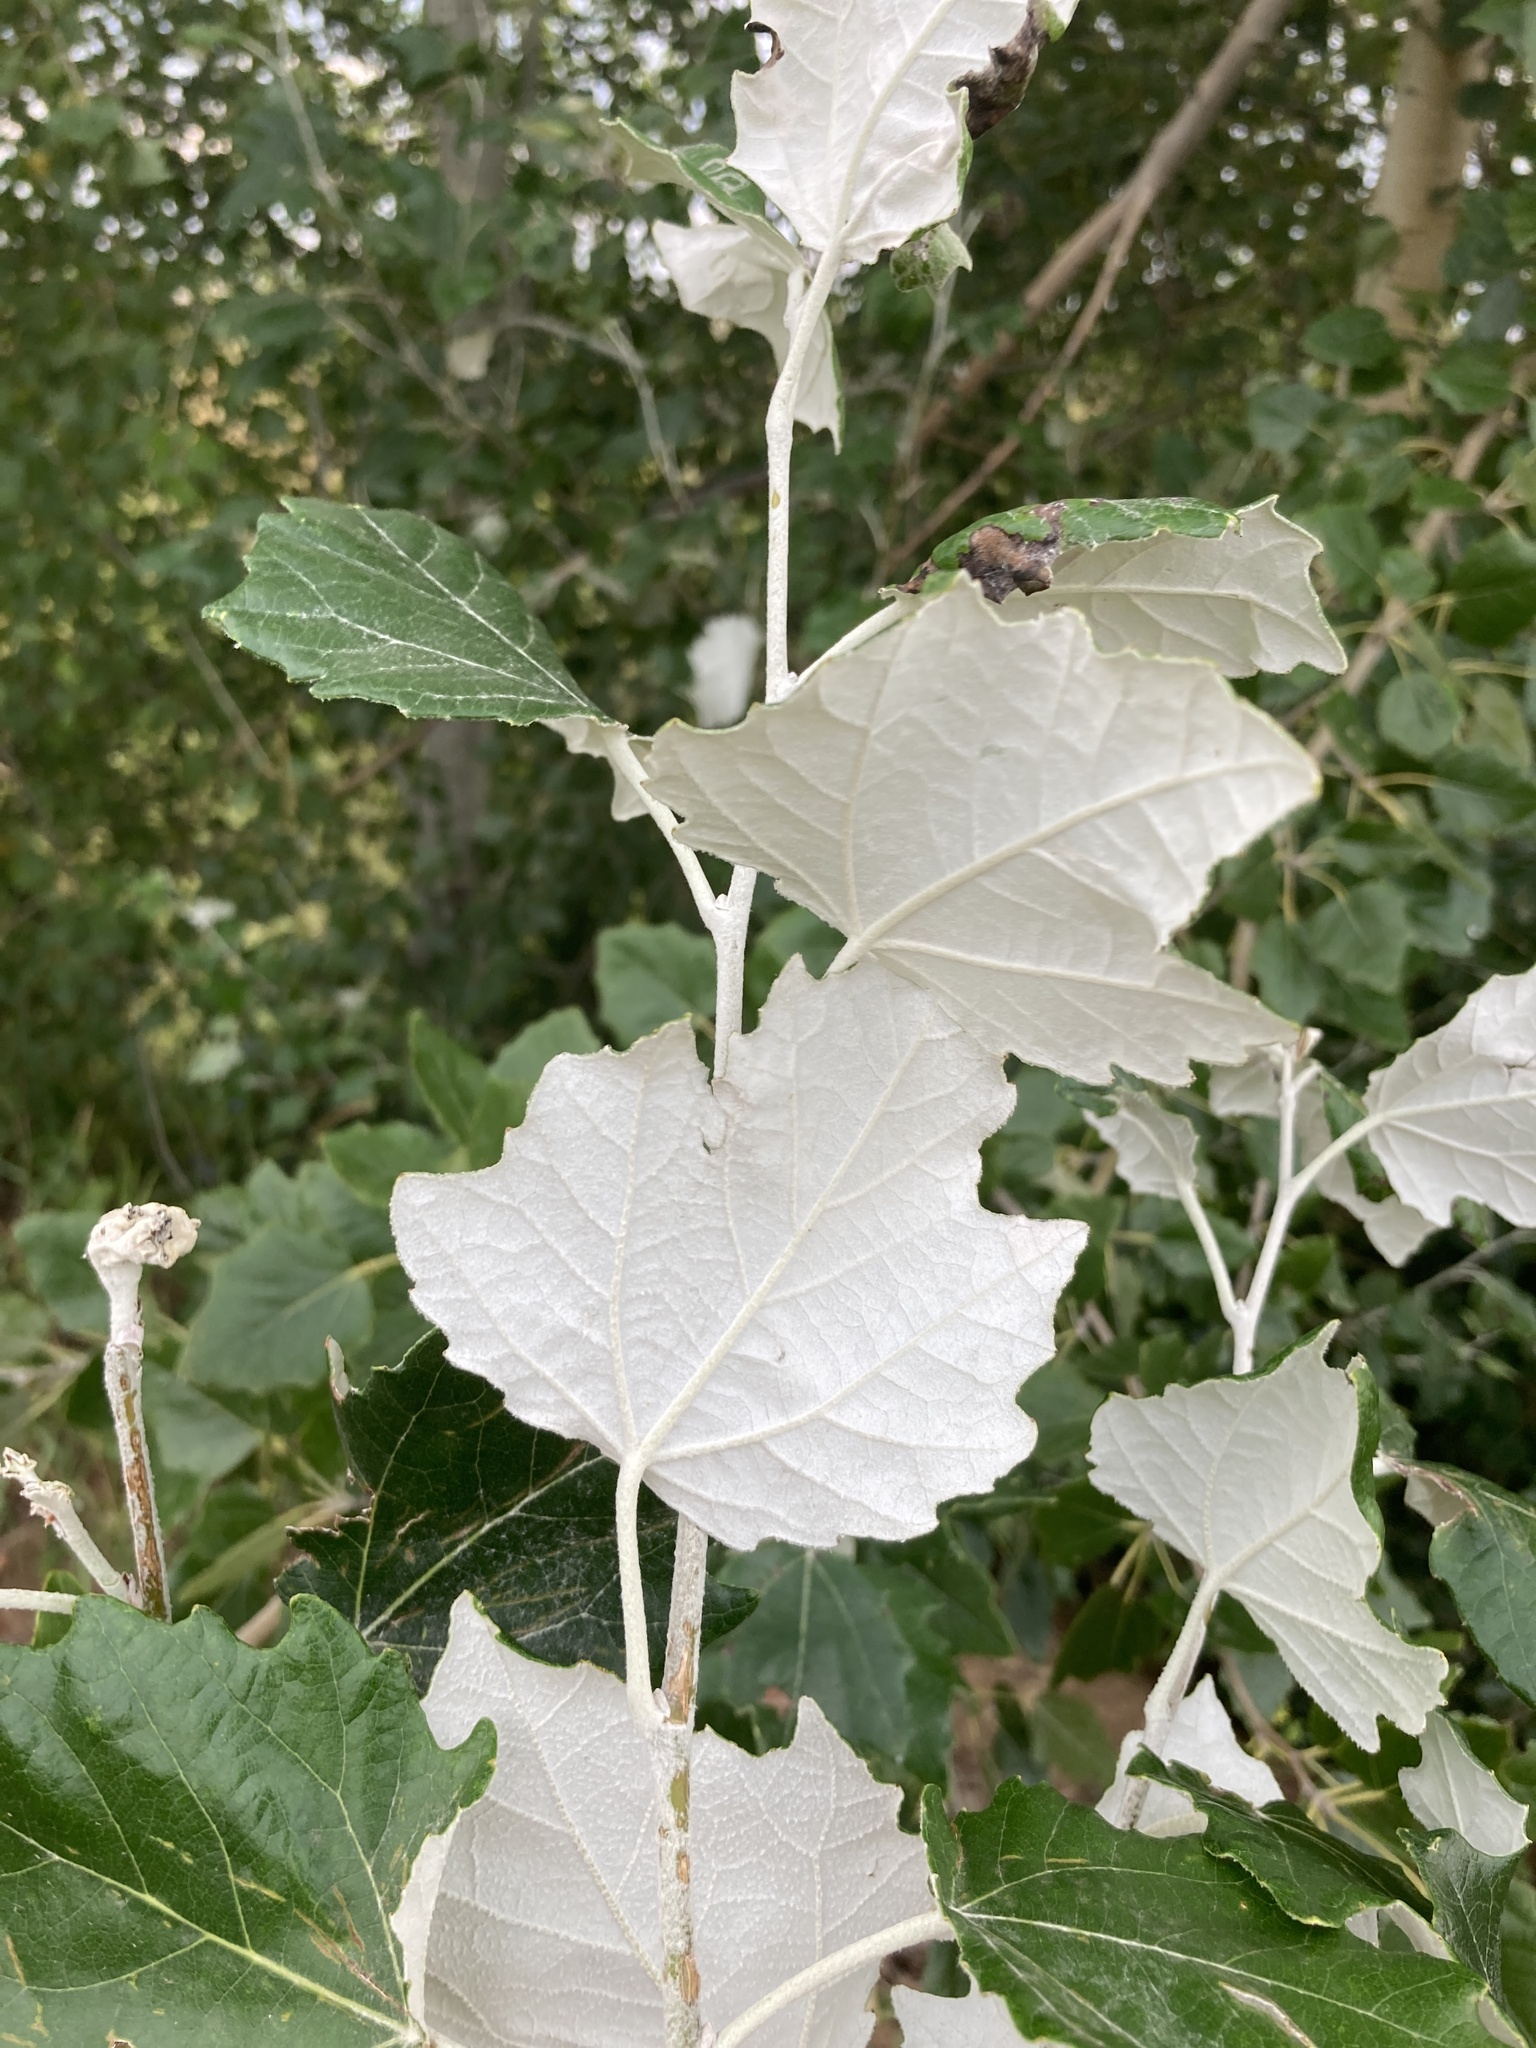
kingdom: Plantae
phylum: Tracheophyta
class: Magnoliopsida
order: Malpighiales
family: Salicaceae
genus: Populus
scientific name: Populus alba
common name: White poplar
